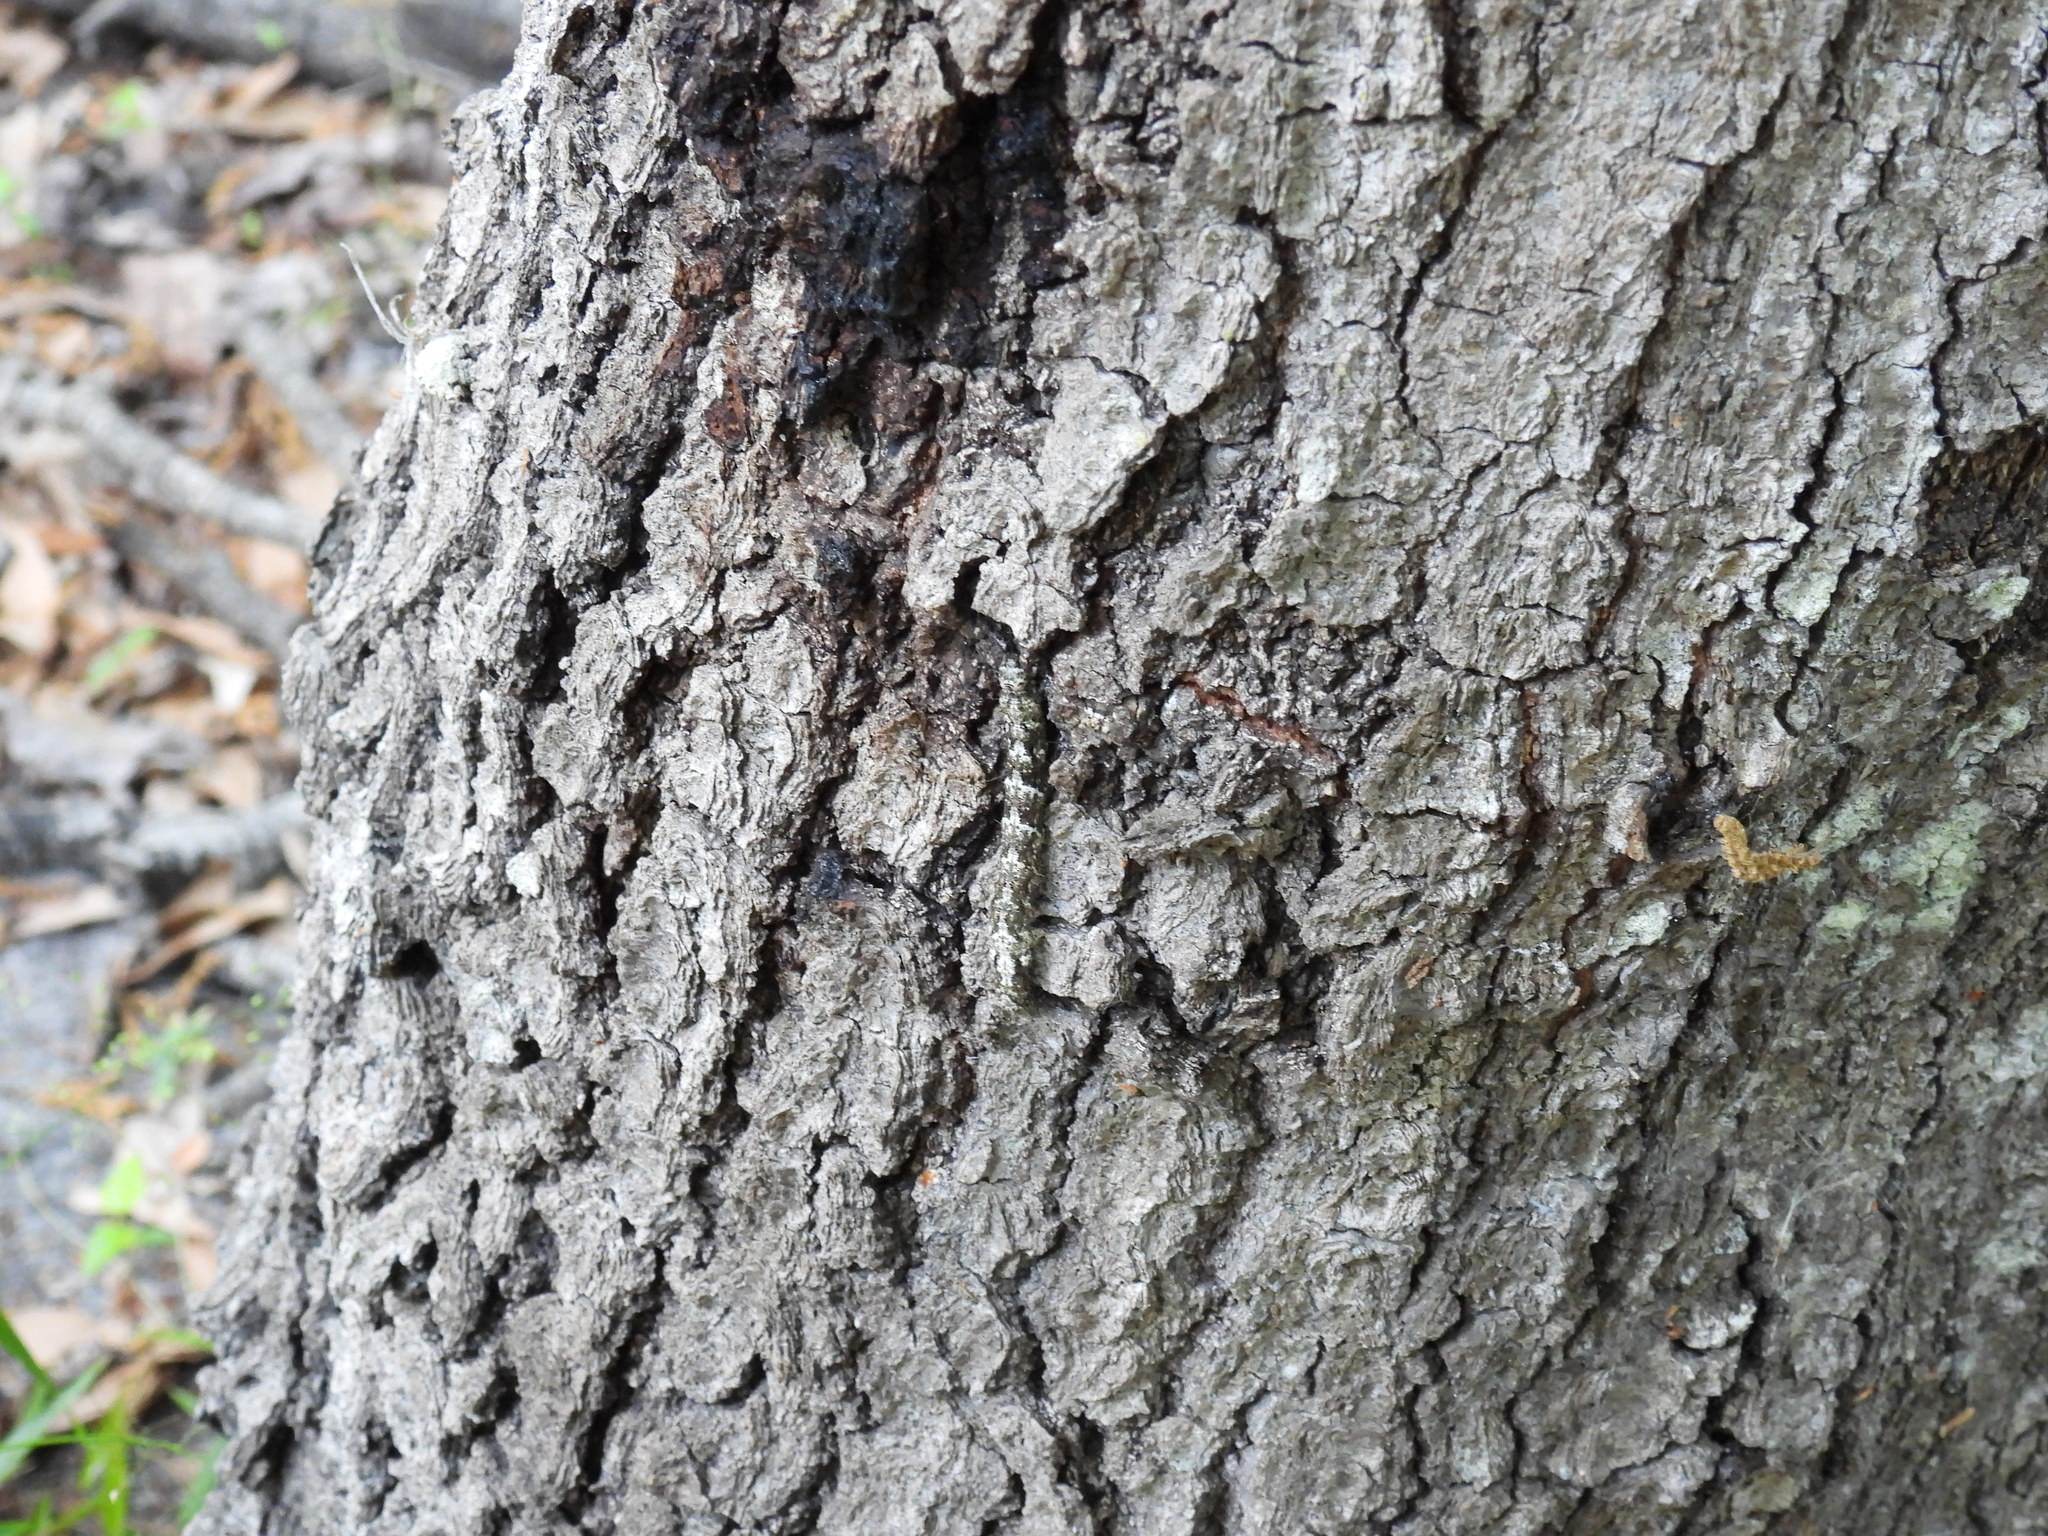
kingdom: Animalia
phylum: Arthropoda
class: Insecta
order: Lepidoptera
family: Erebidae
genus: Metria
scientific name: Metria amella
